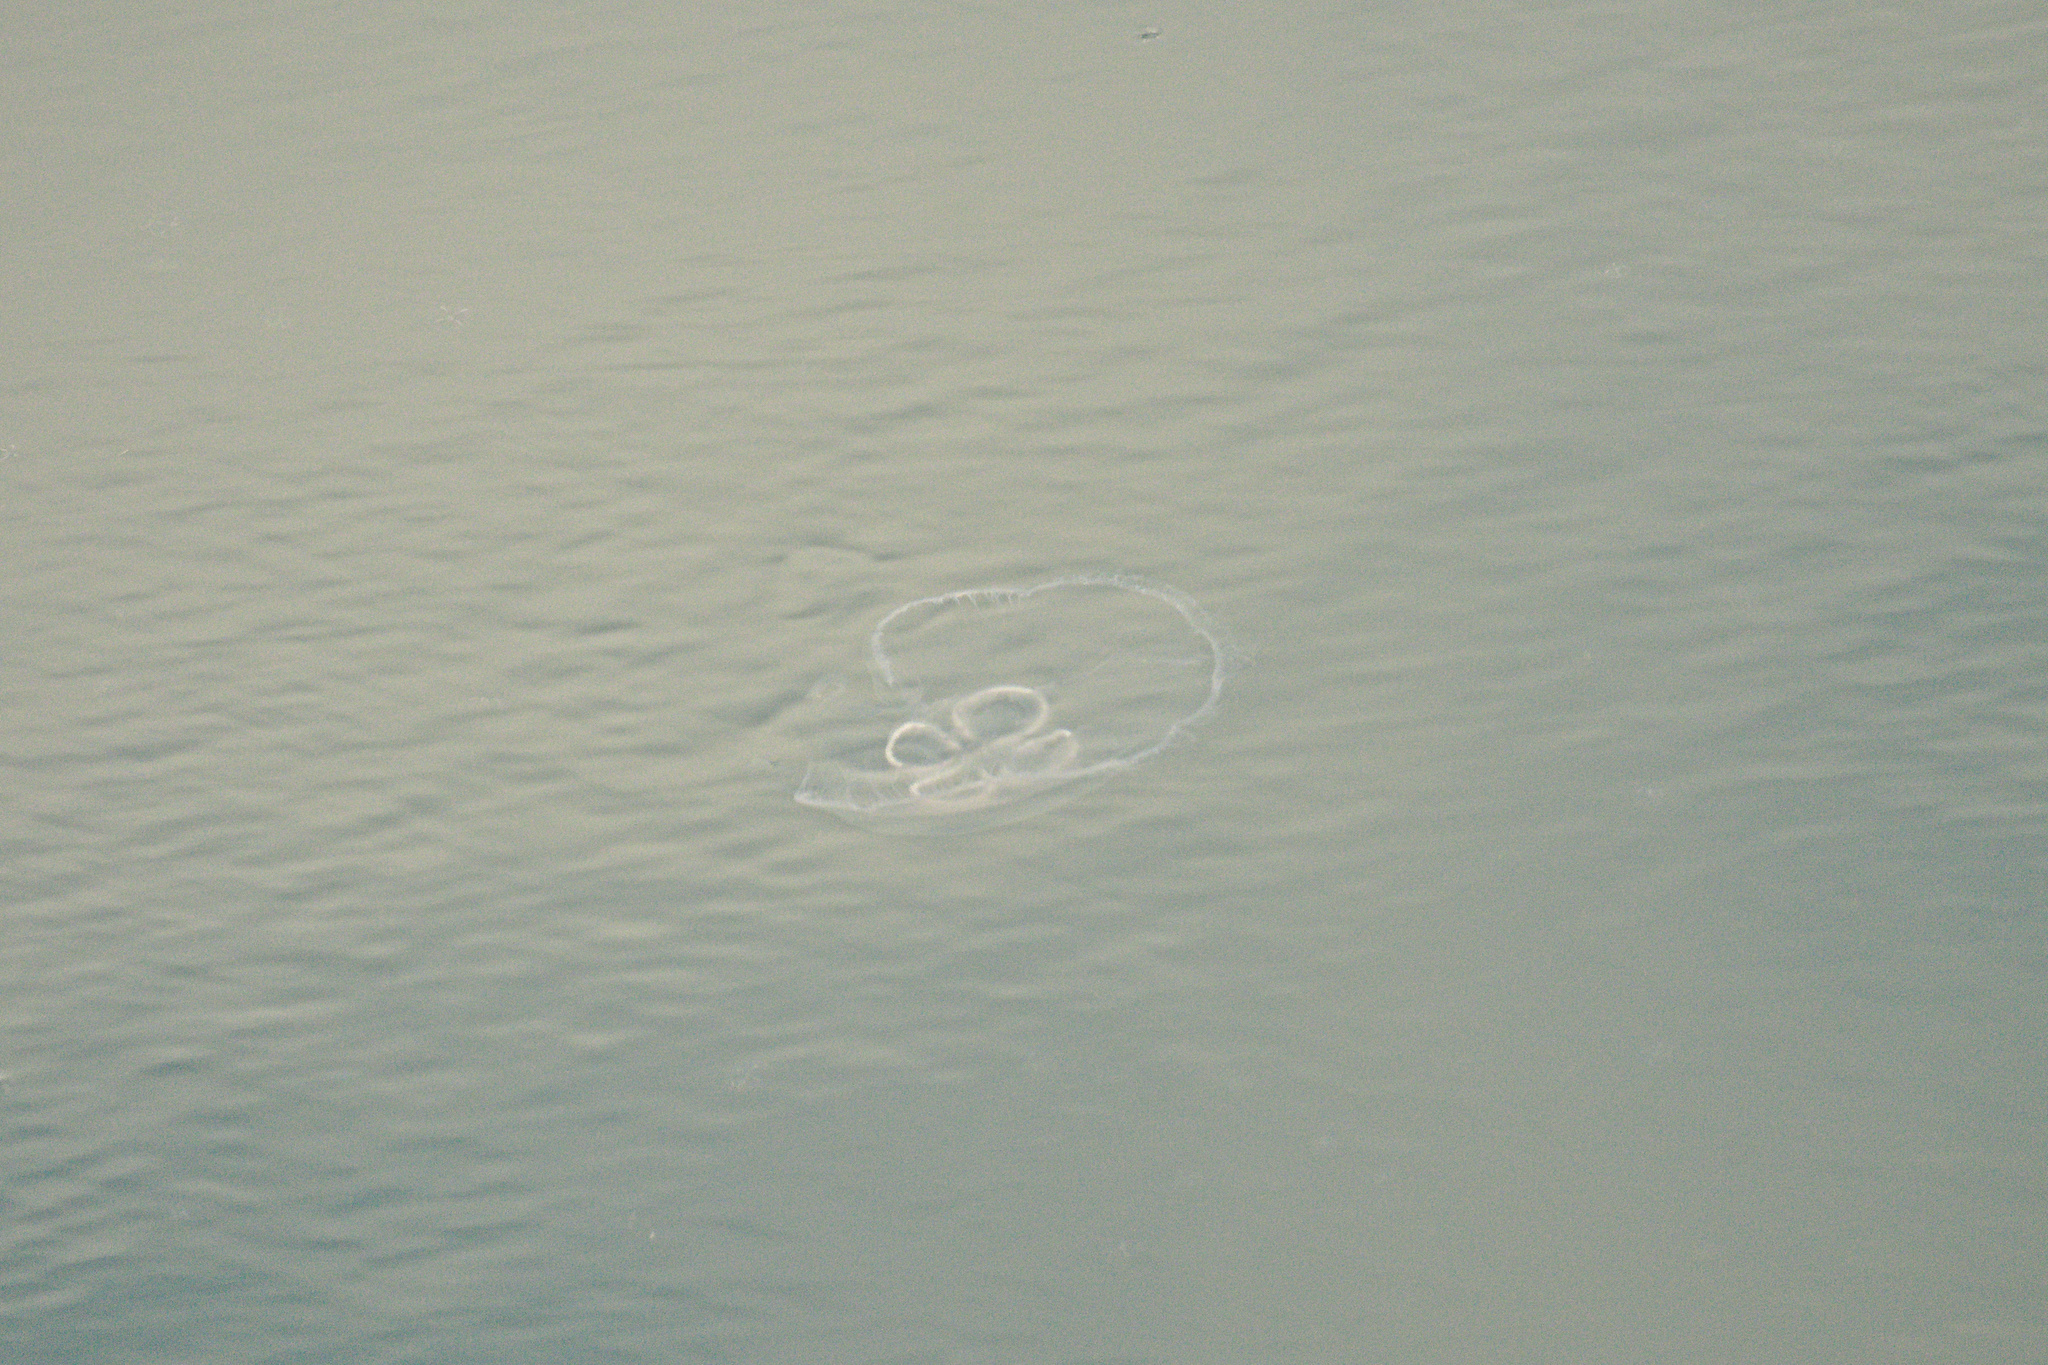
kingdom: Animalia
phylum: Cnidaria
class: Scyphozoa
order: Semaeostomeae
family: Ulmaridae
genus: Aurelia
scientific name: Aurelia aurita
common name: Moon jellyfish
